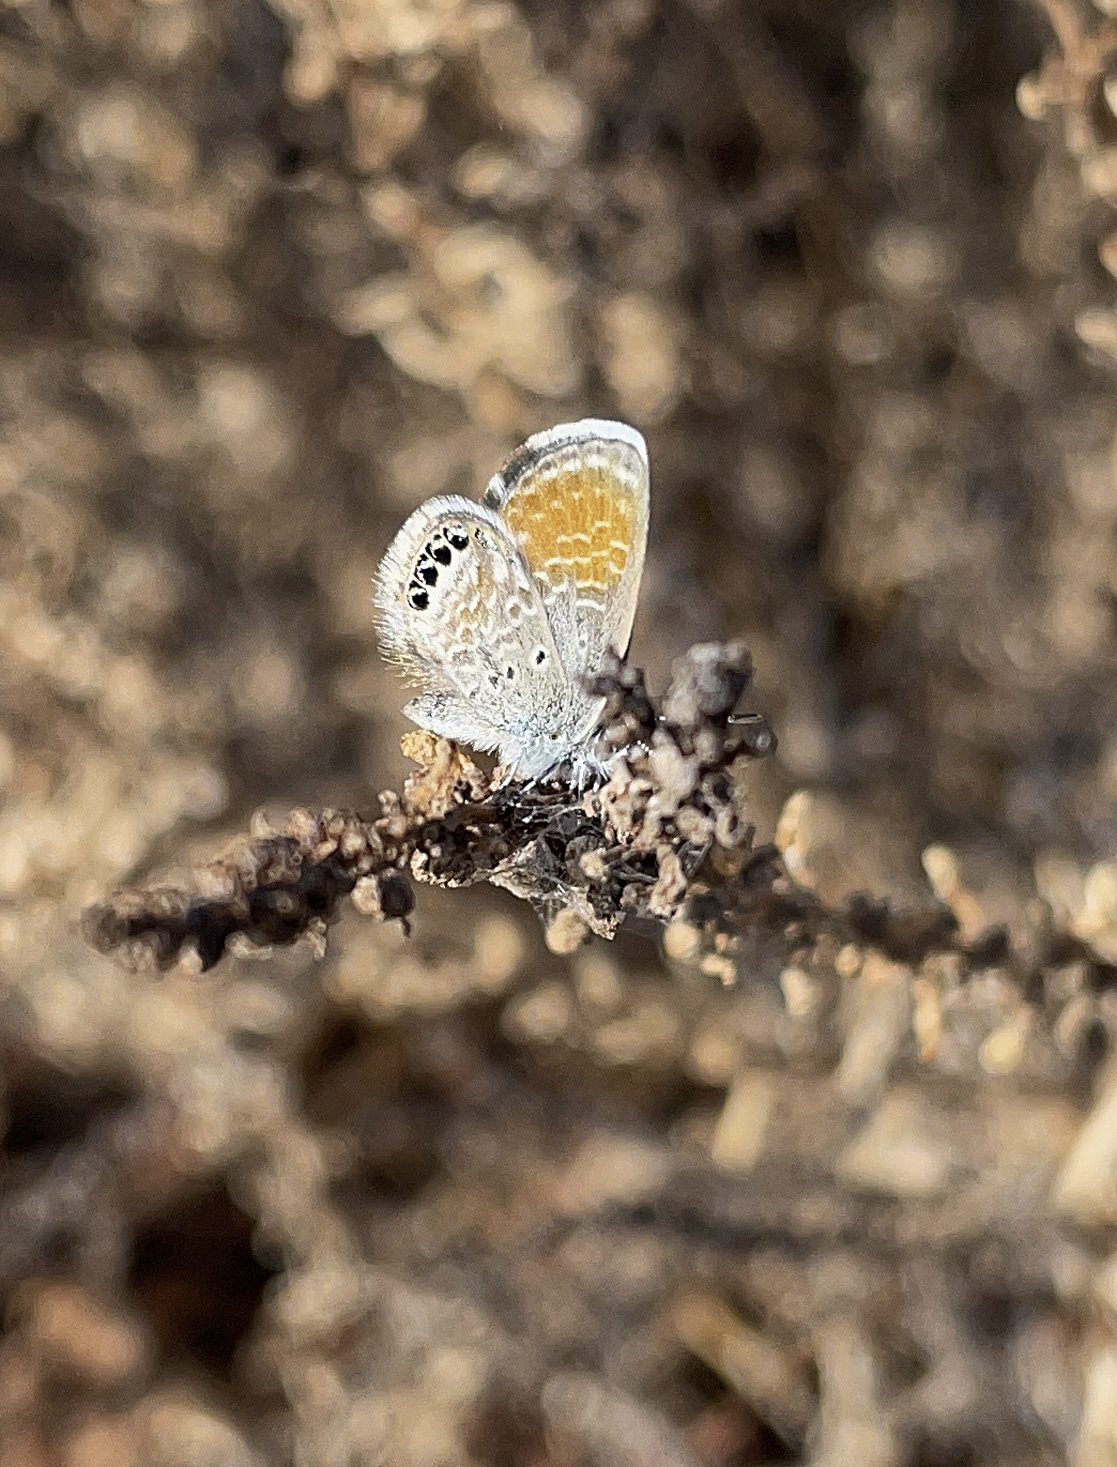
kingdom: Animalia
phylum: Arthropoda
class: Insecta
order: Lepidoptera
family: Lycaenidae
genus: Brephidium
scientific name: Brephidium exilis
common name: Pygmy blue
